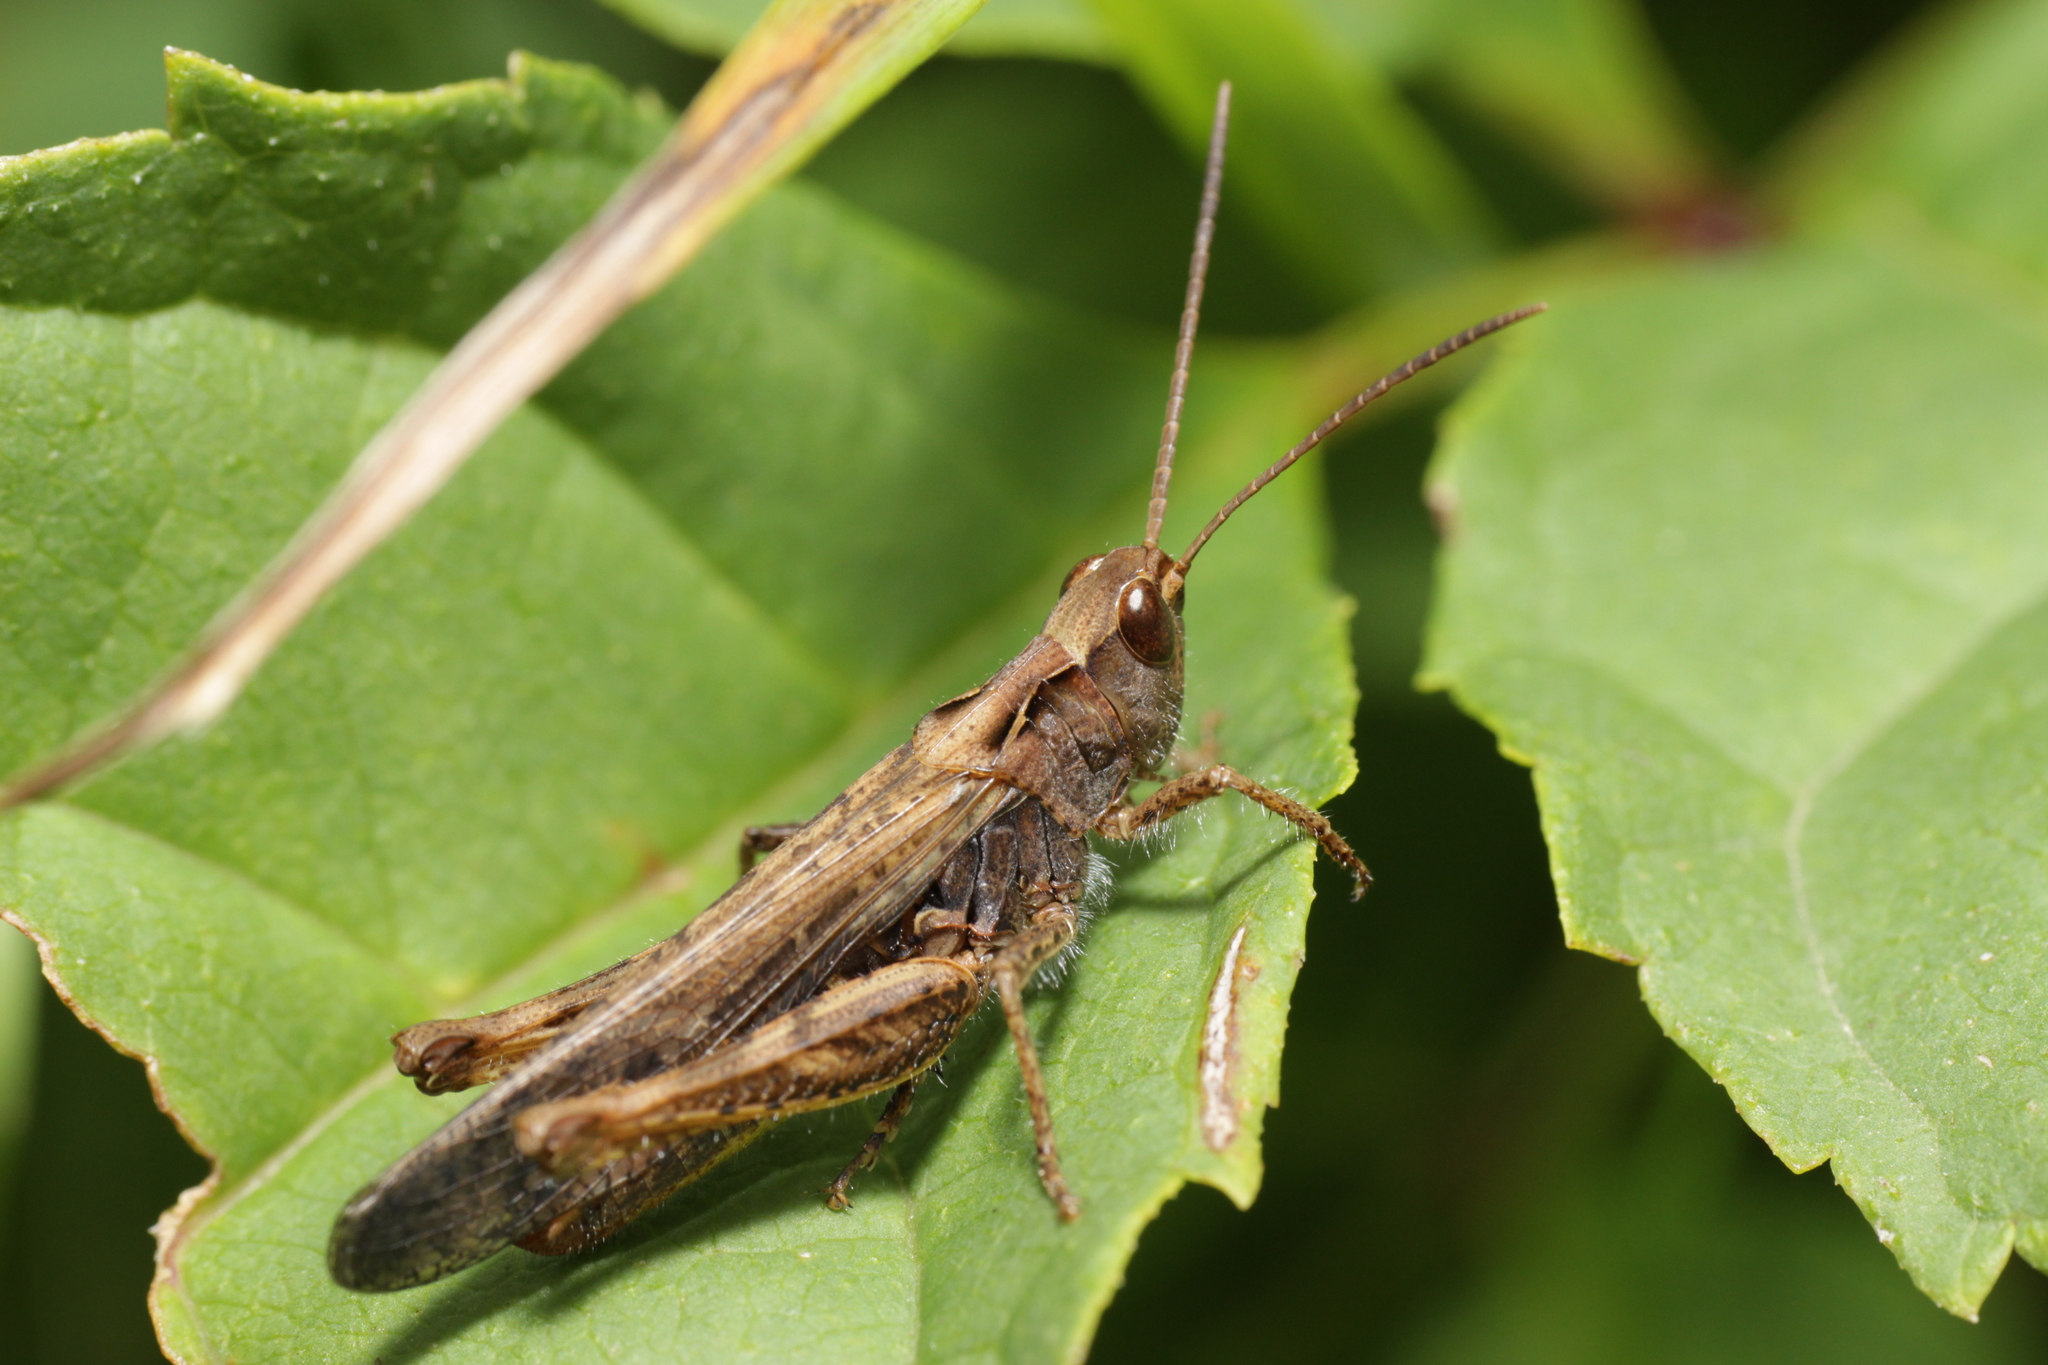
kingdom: Animalia
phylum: Arthropoda
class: Insecta
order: Orthoptera
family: Acrididae
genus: Chorthippus
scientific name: Chorthippus brunneus
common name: Field grasshopper
